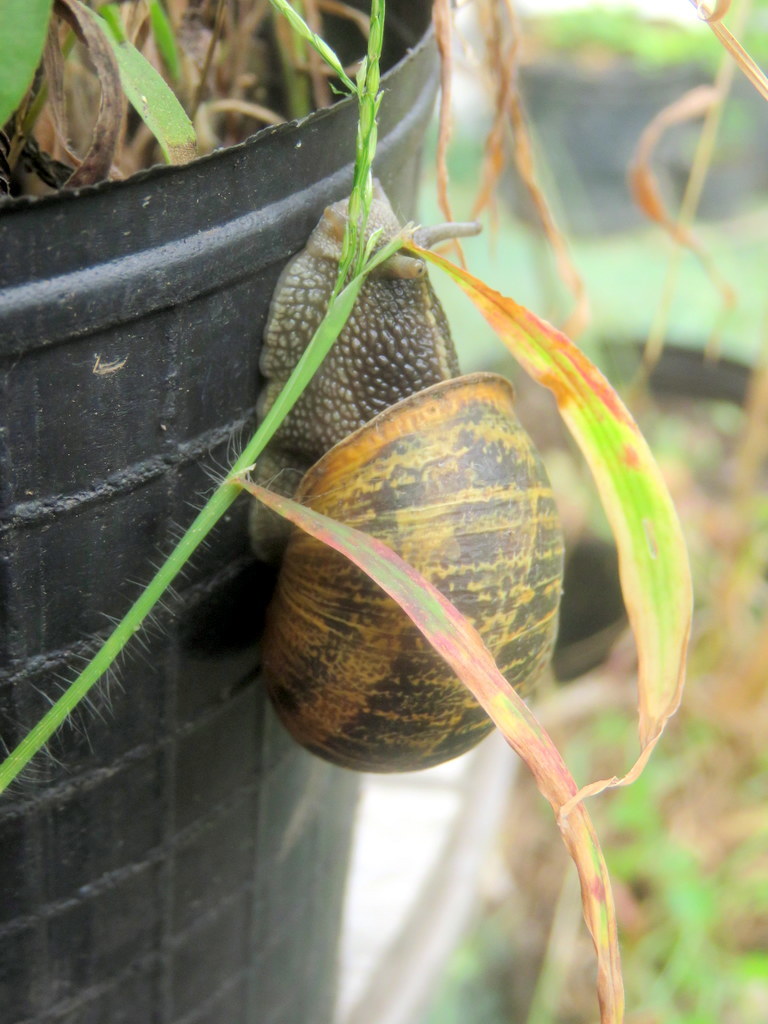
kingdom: Animalia
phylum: Mollusca
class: Gastropoda
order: Stylommatophora
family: Helicidae
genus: Cornu
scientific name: Cornu aspersum
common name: Brown garden snail
